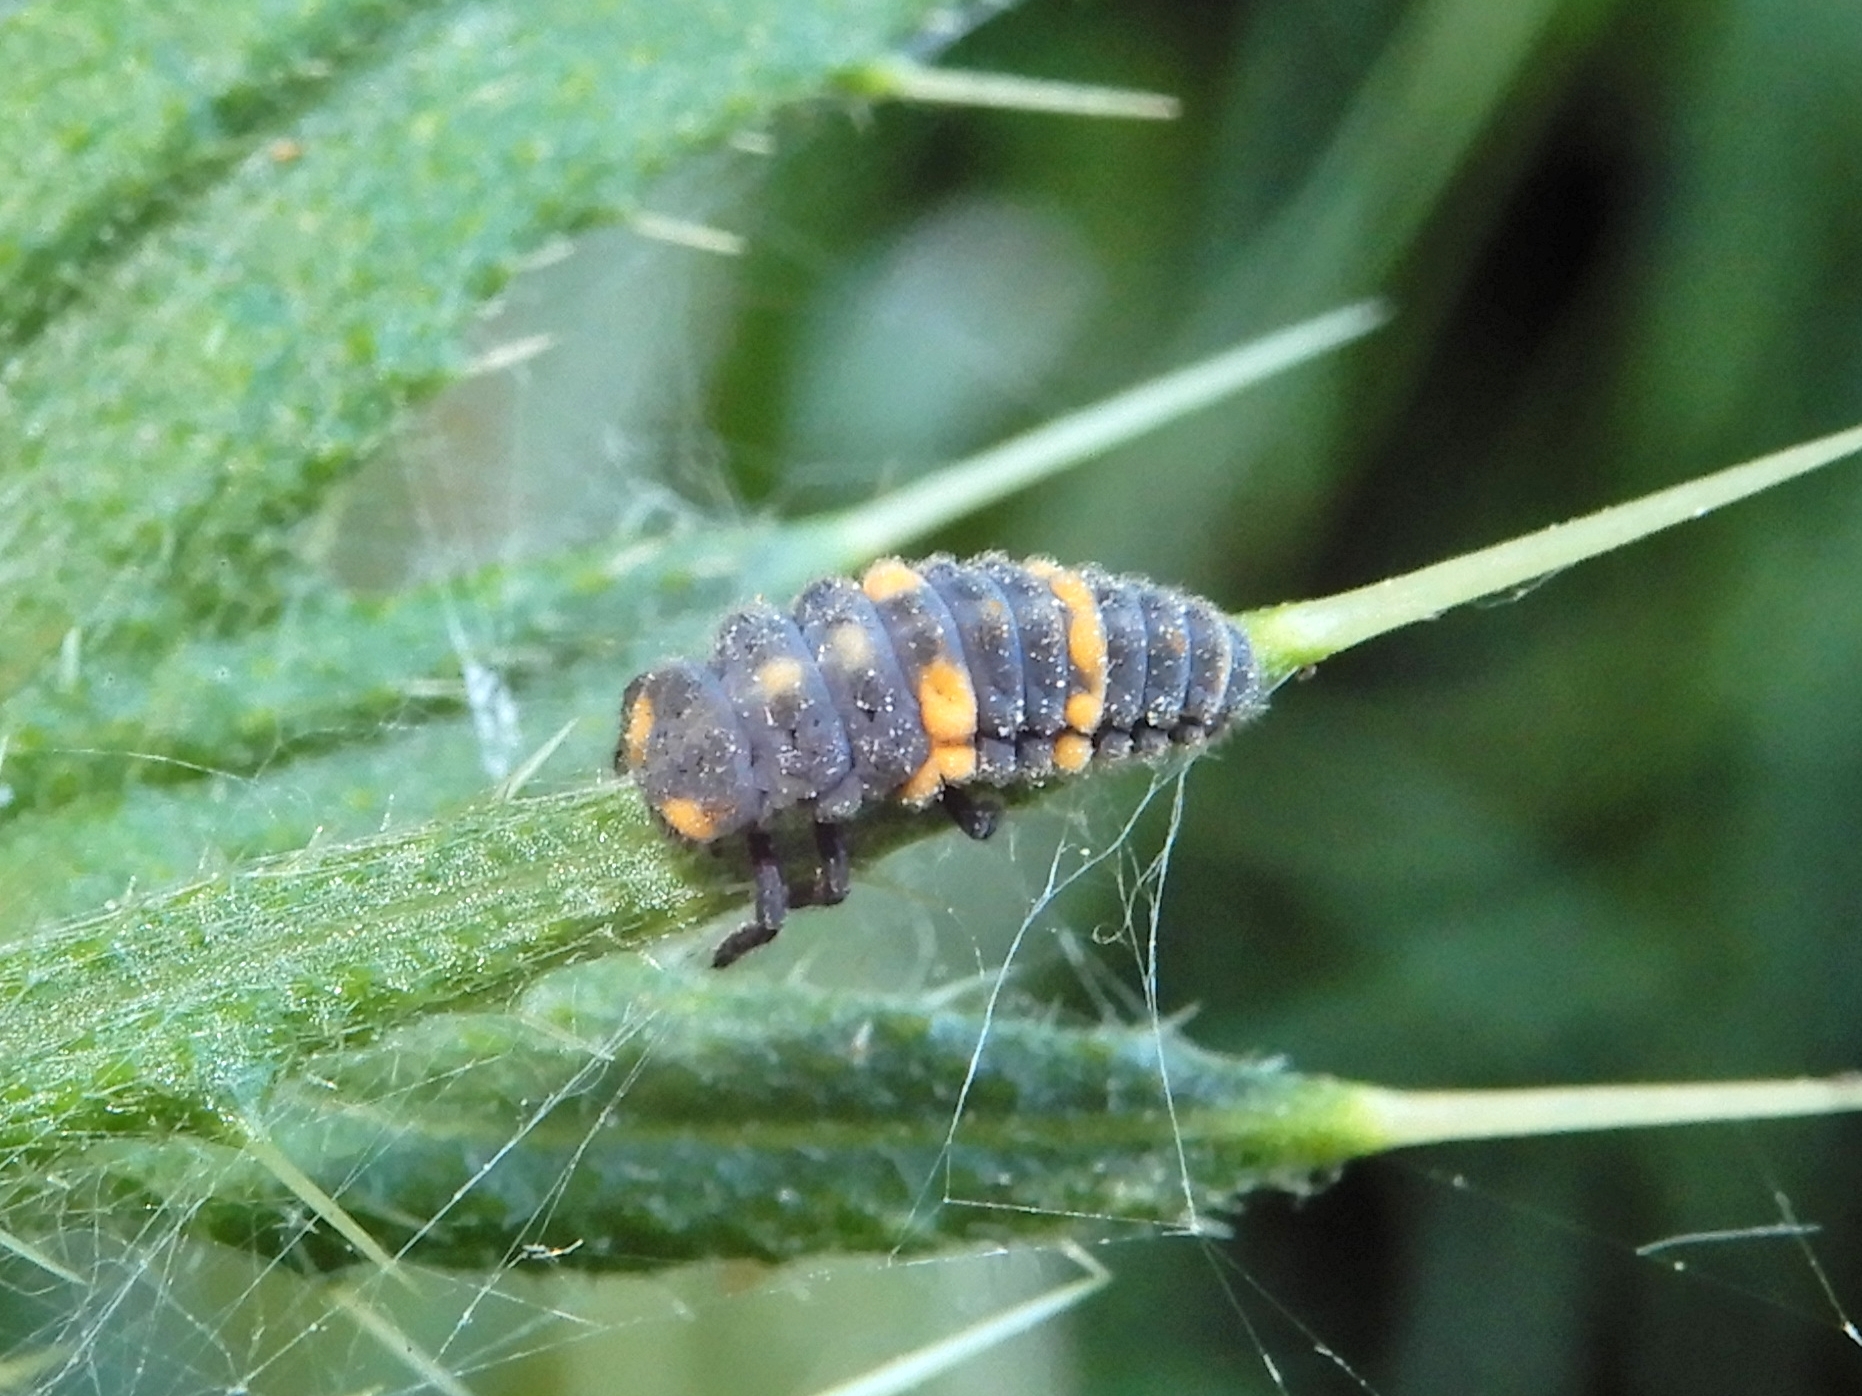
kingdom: Animalia
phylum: Arthropoda
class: Insecta
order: Coleoptera
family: Coccinellidae
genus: Coccinella
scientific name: Coccinella leonina
